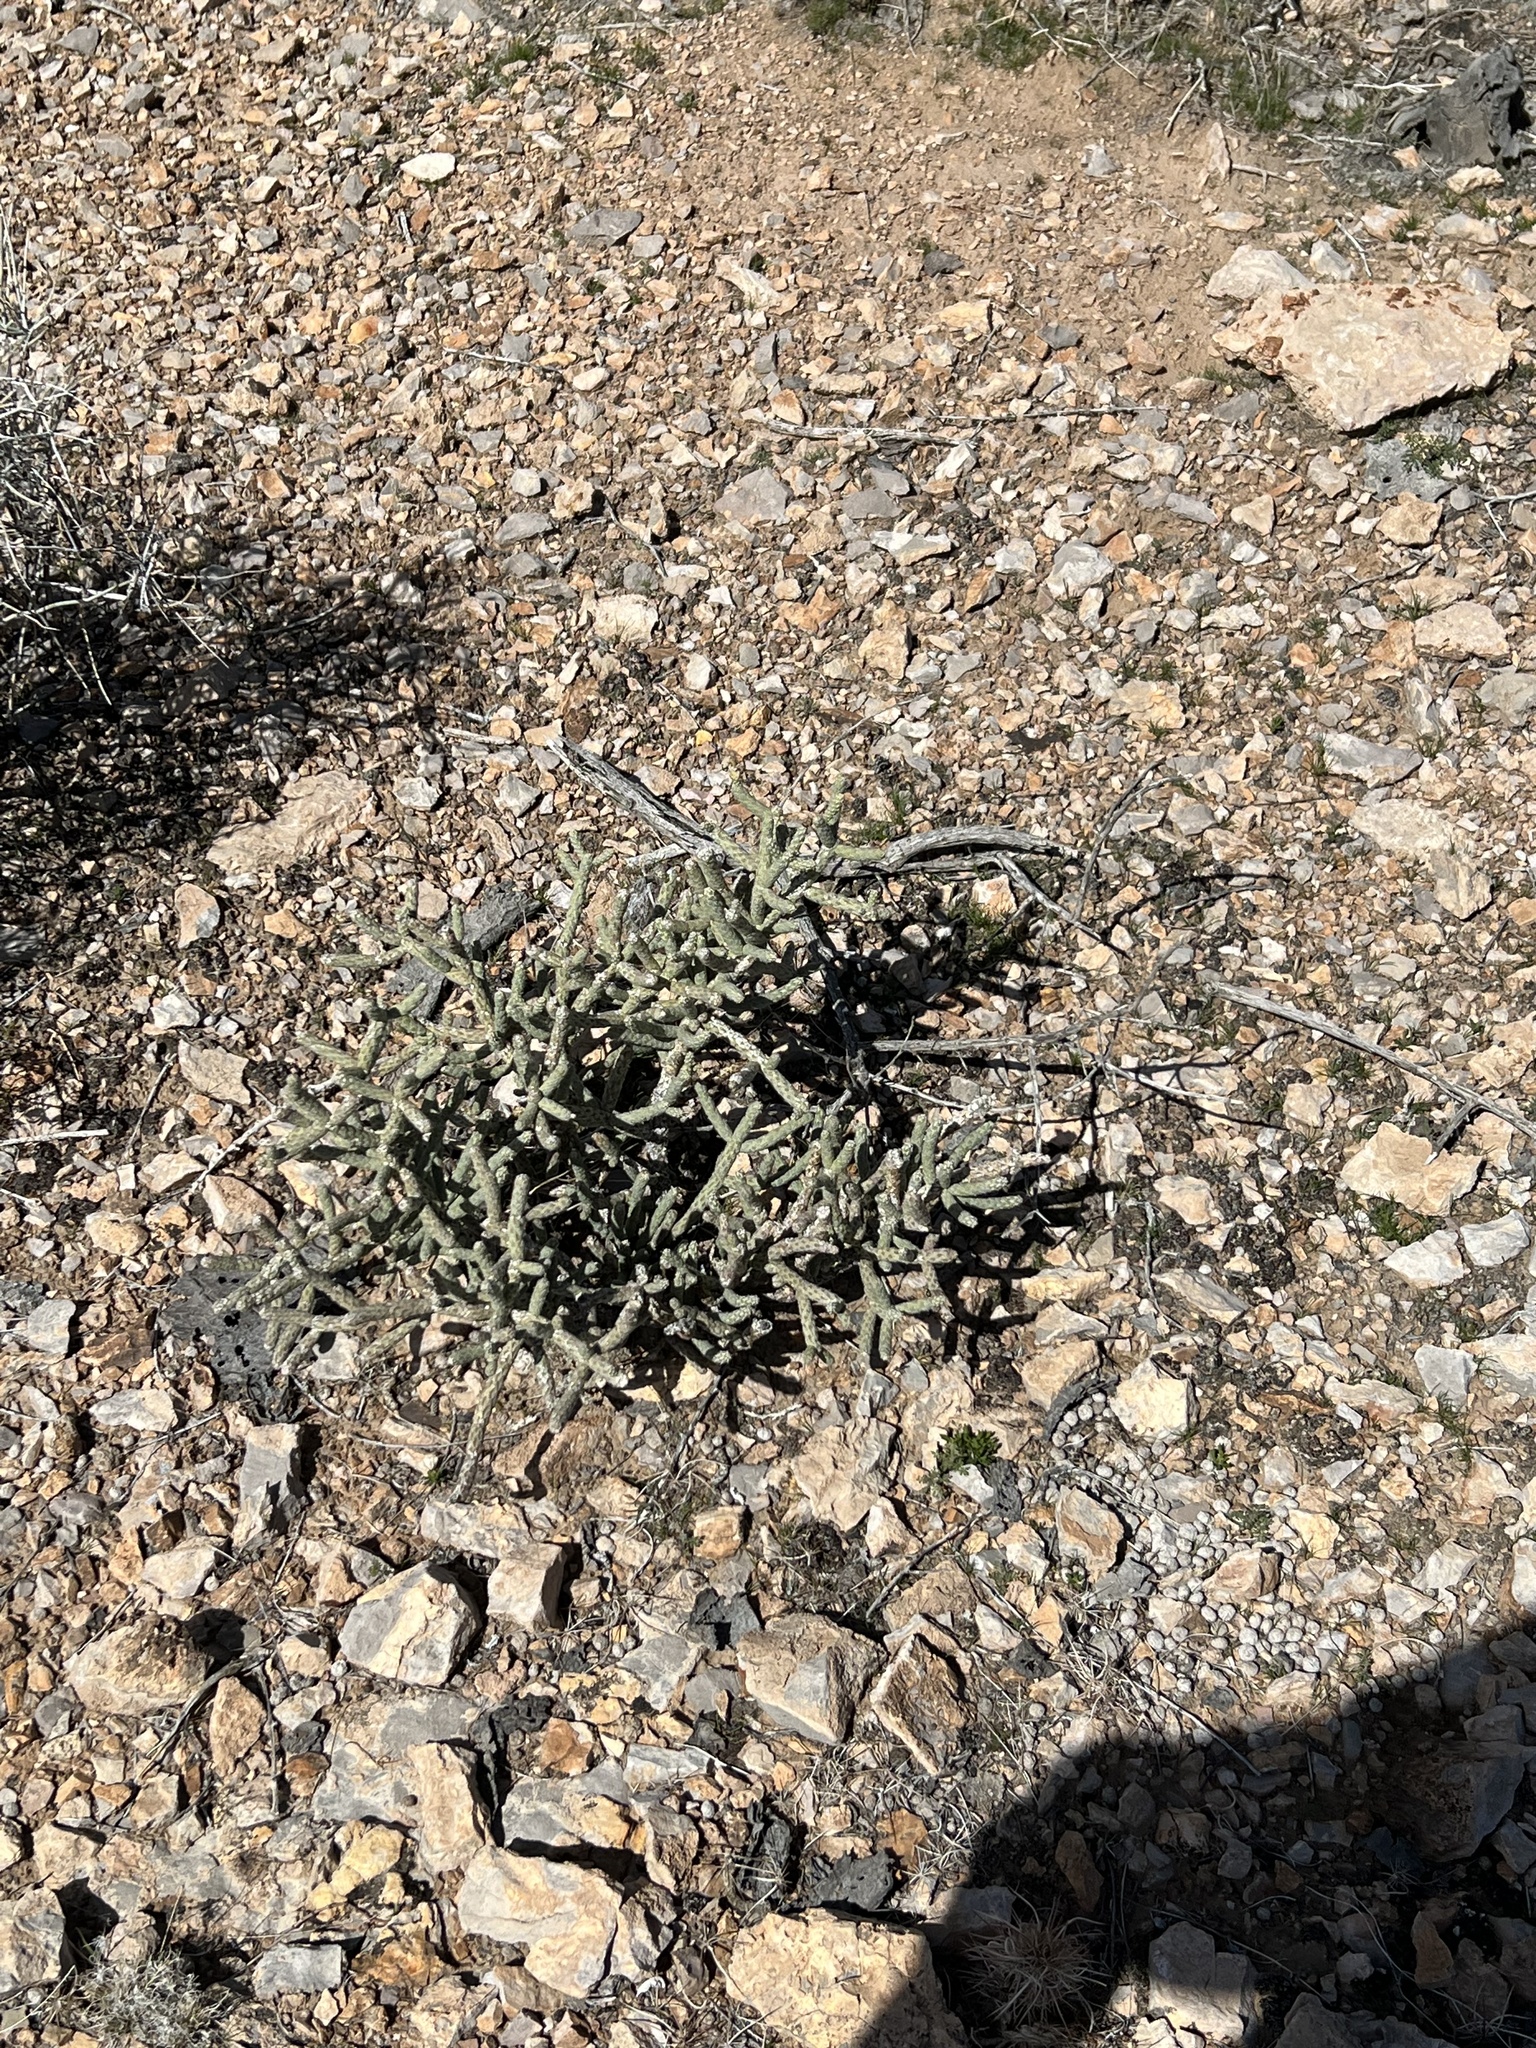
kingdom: Plantae
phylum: Tracheophyta
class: Magnoliopsida
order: Caryophyllales
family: Cactaceae
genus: Cylindropuntia
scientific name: Cylindropuntia ramosissima
